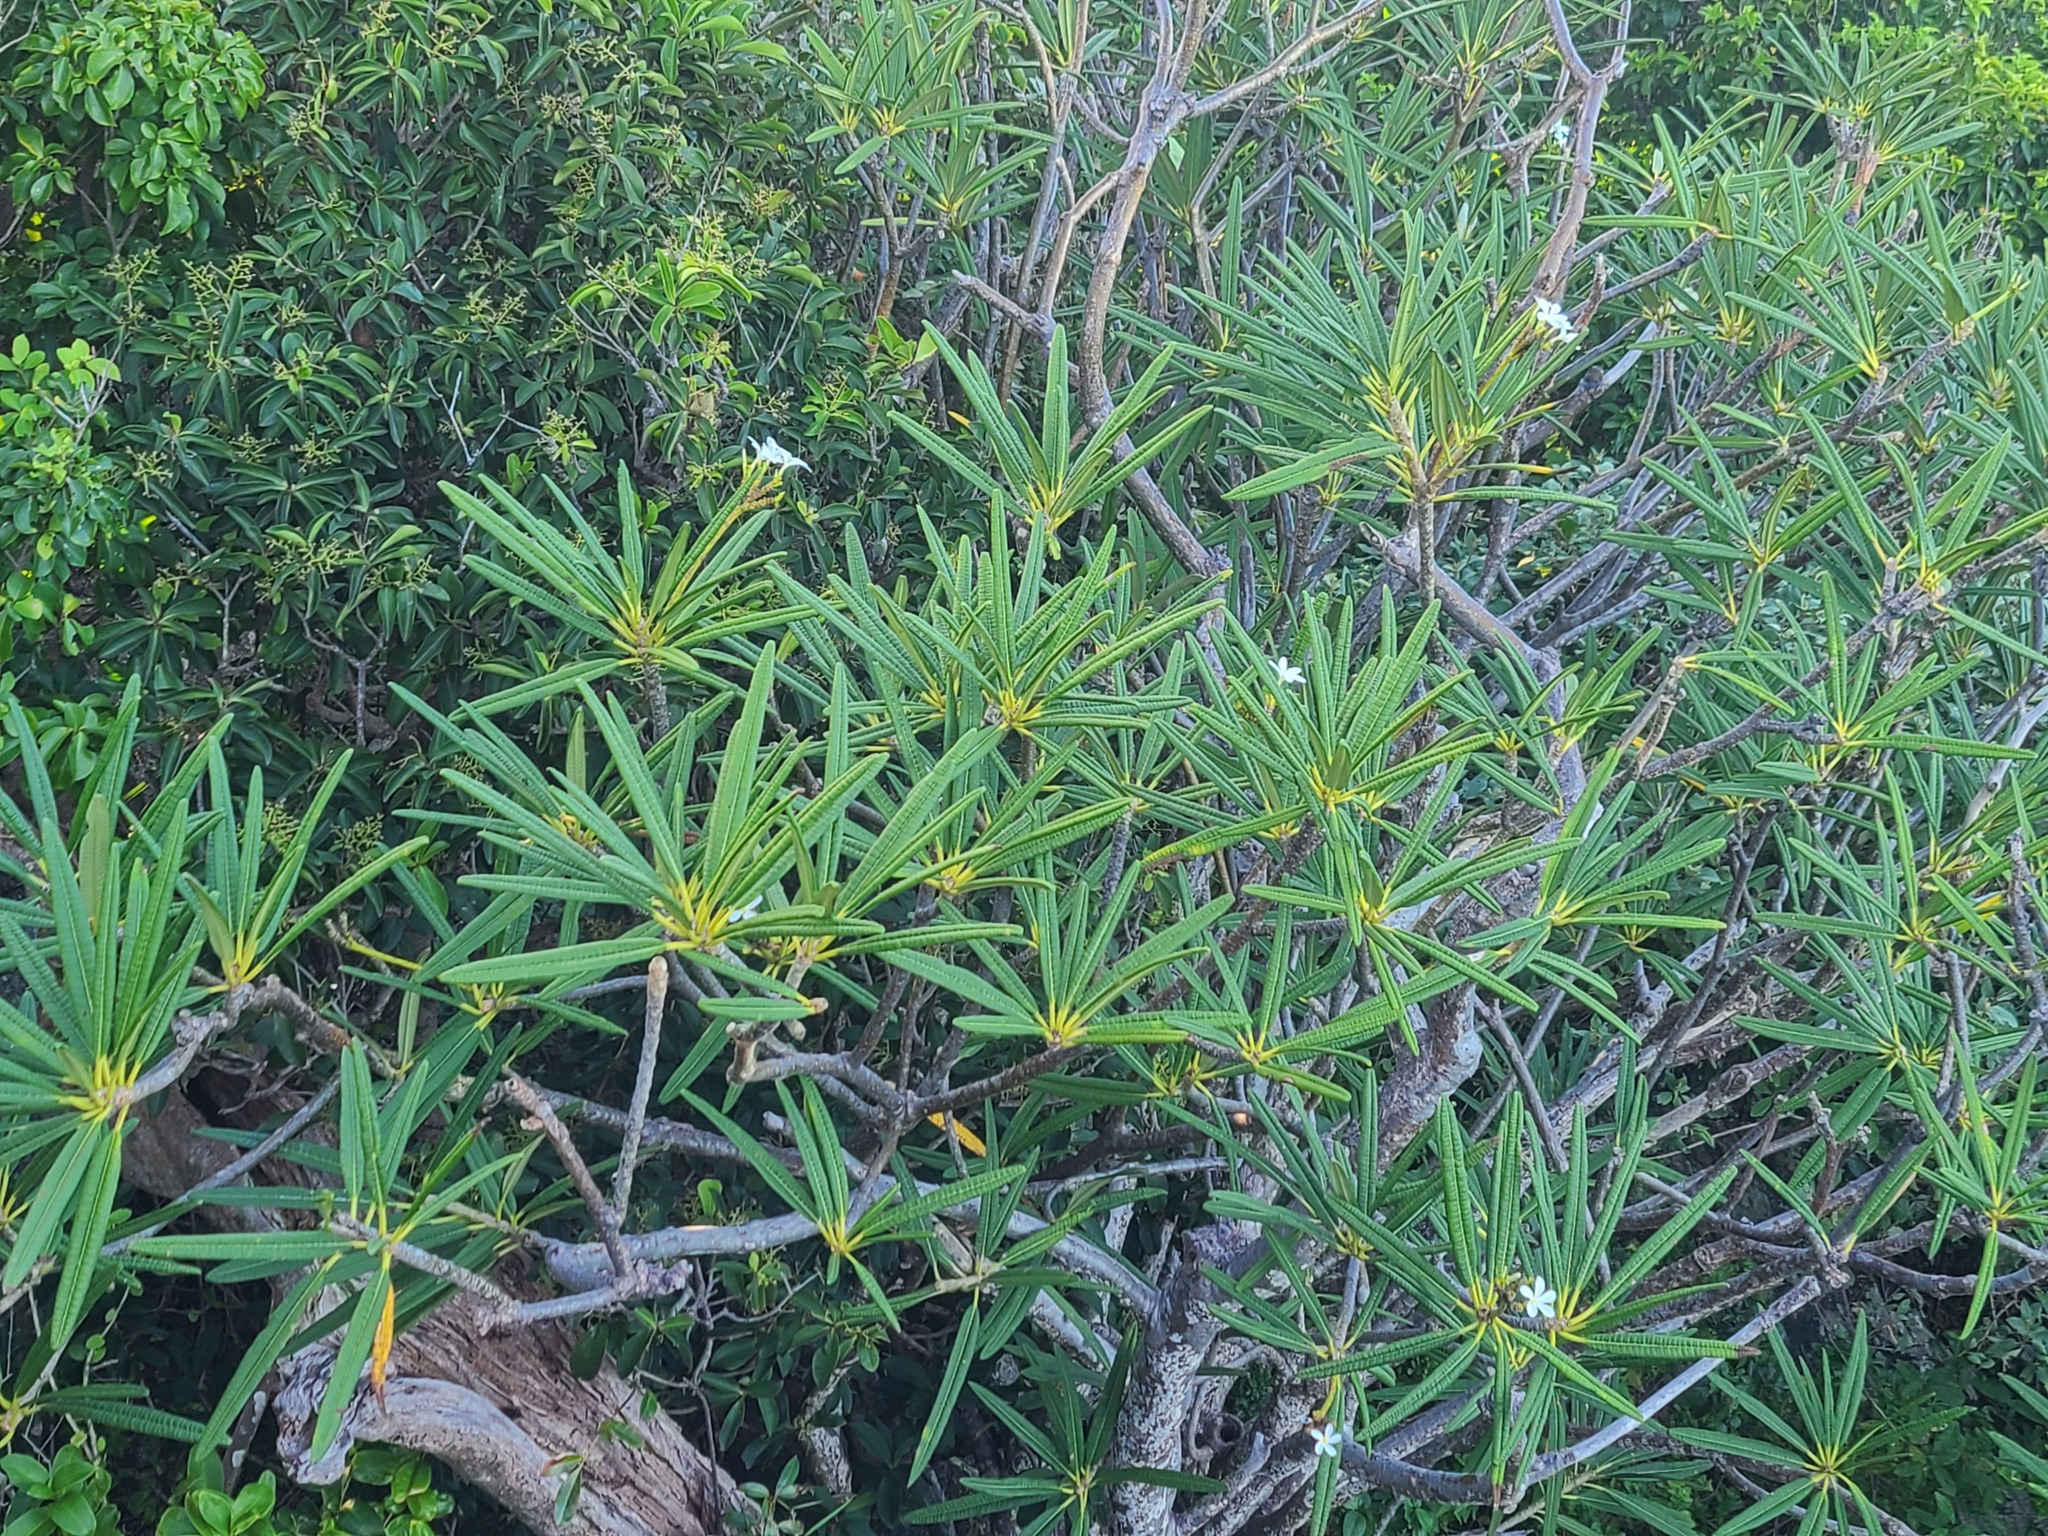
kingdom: Plantae
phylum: Tracheophyta
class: Magnoliopsida
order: Gentianales
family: Apocynaceae
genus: Plumeria
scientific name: Plumeria alba
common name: Wild frangipani
